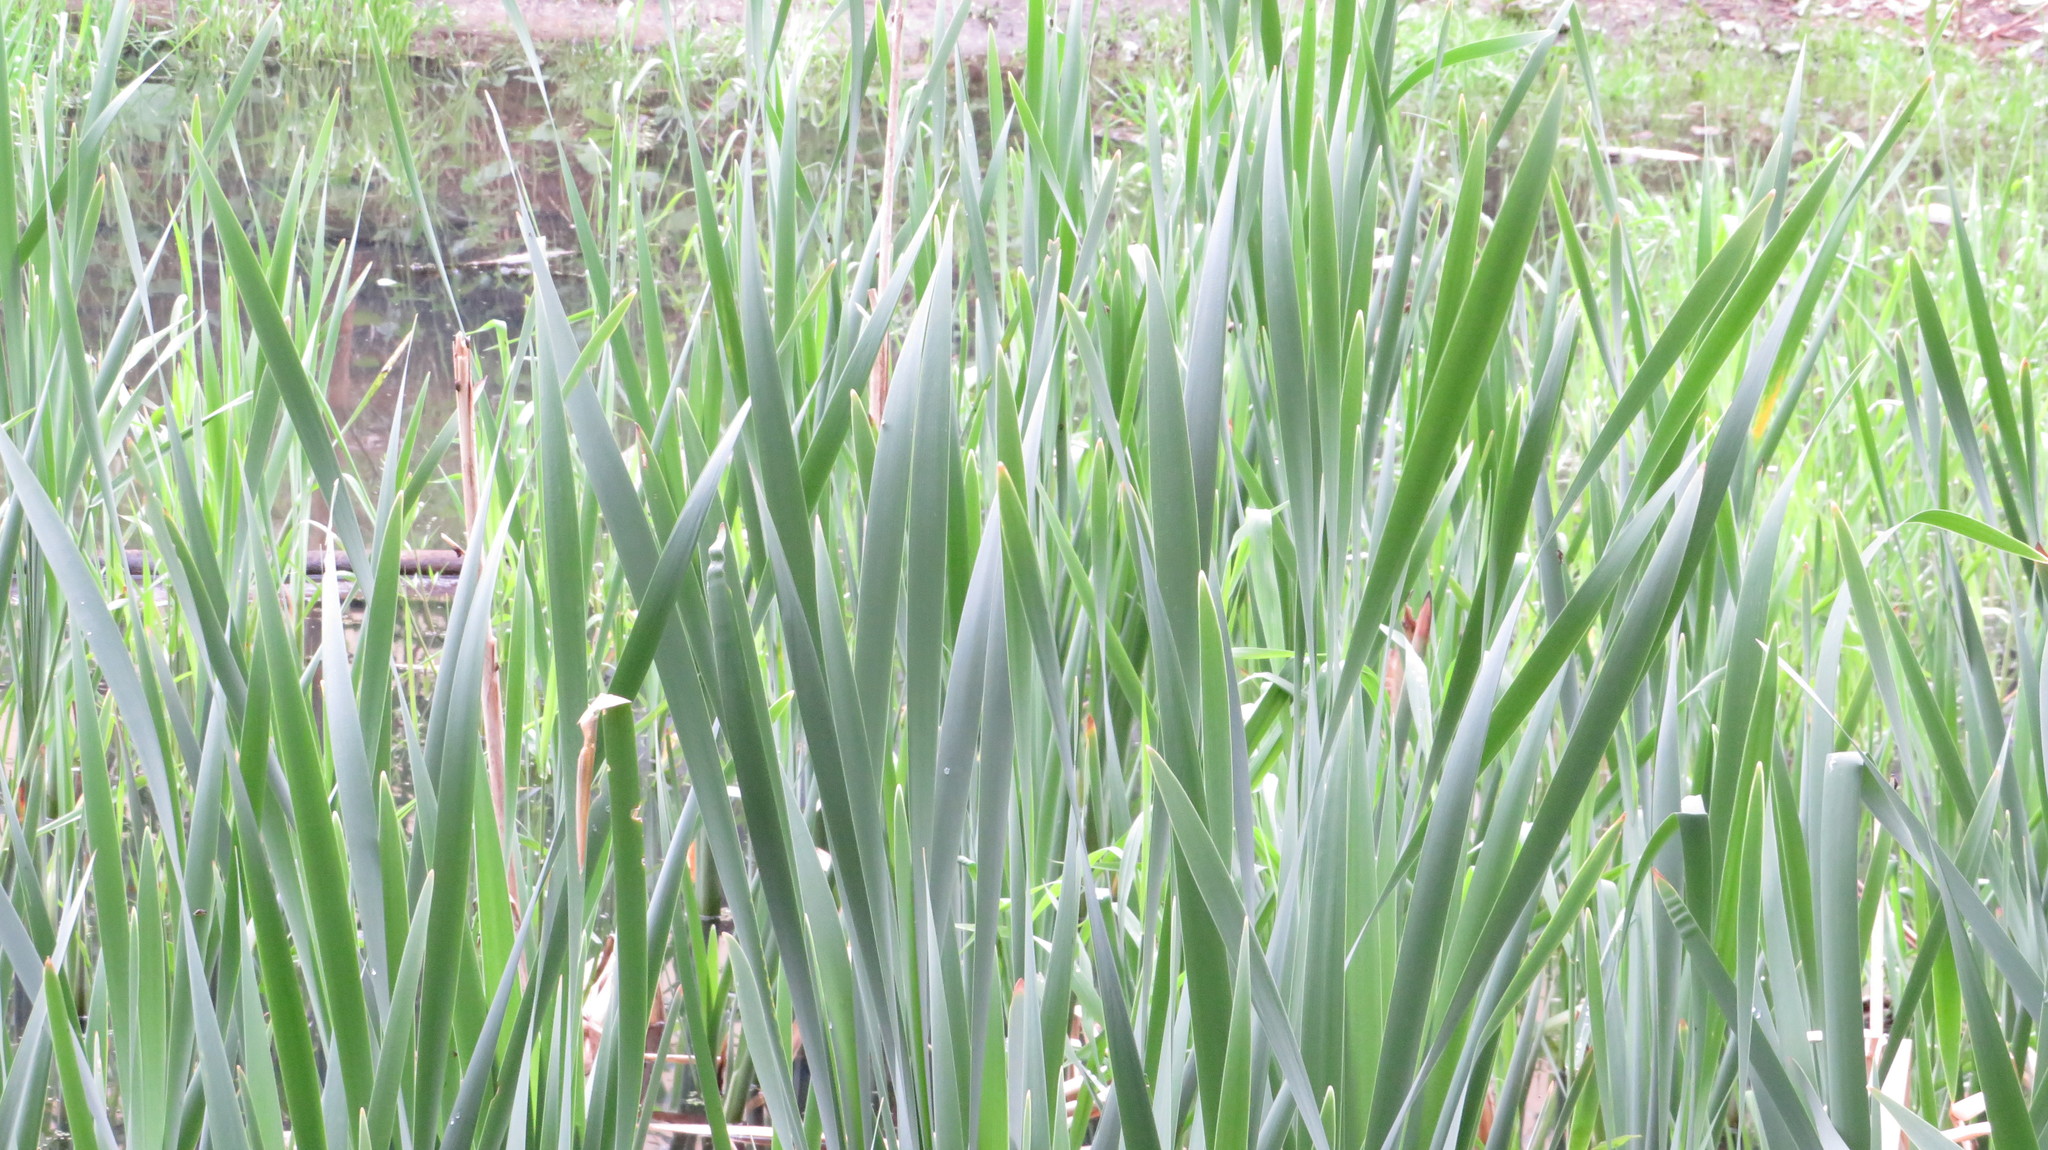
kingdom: Plantae
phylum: Tracheophyta
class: Liliopsida
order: Poales
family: Typhaceae
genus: Typha
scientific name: Typha latifolia
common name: Broadleaf cattail
